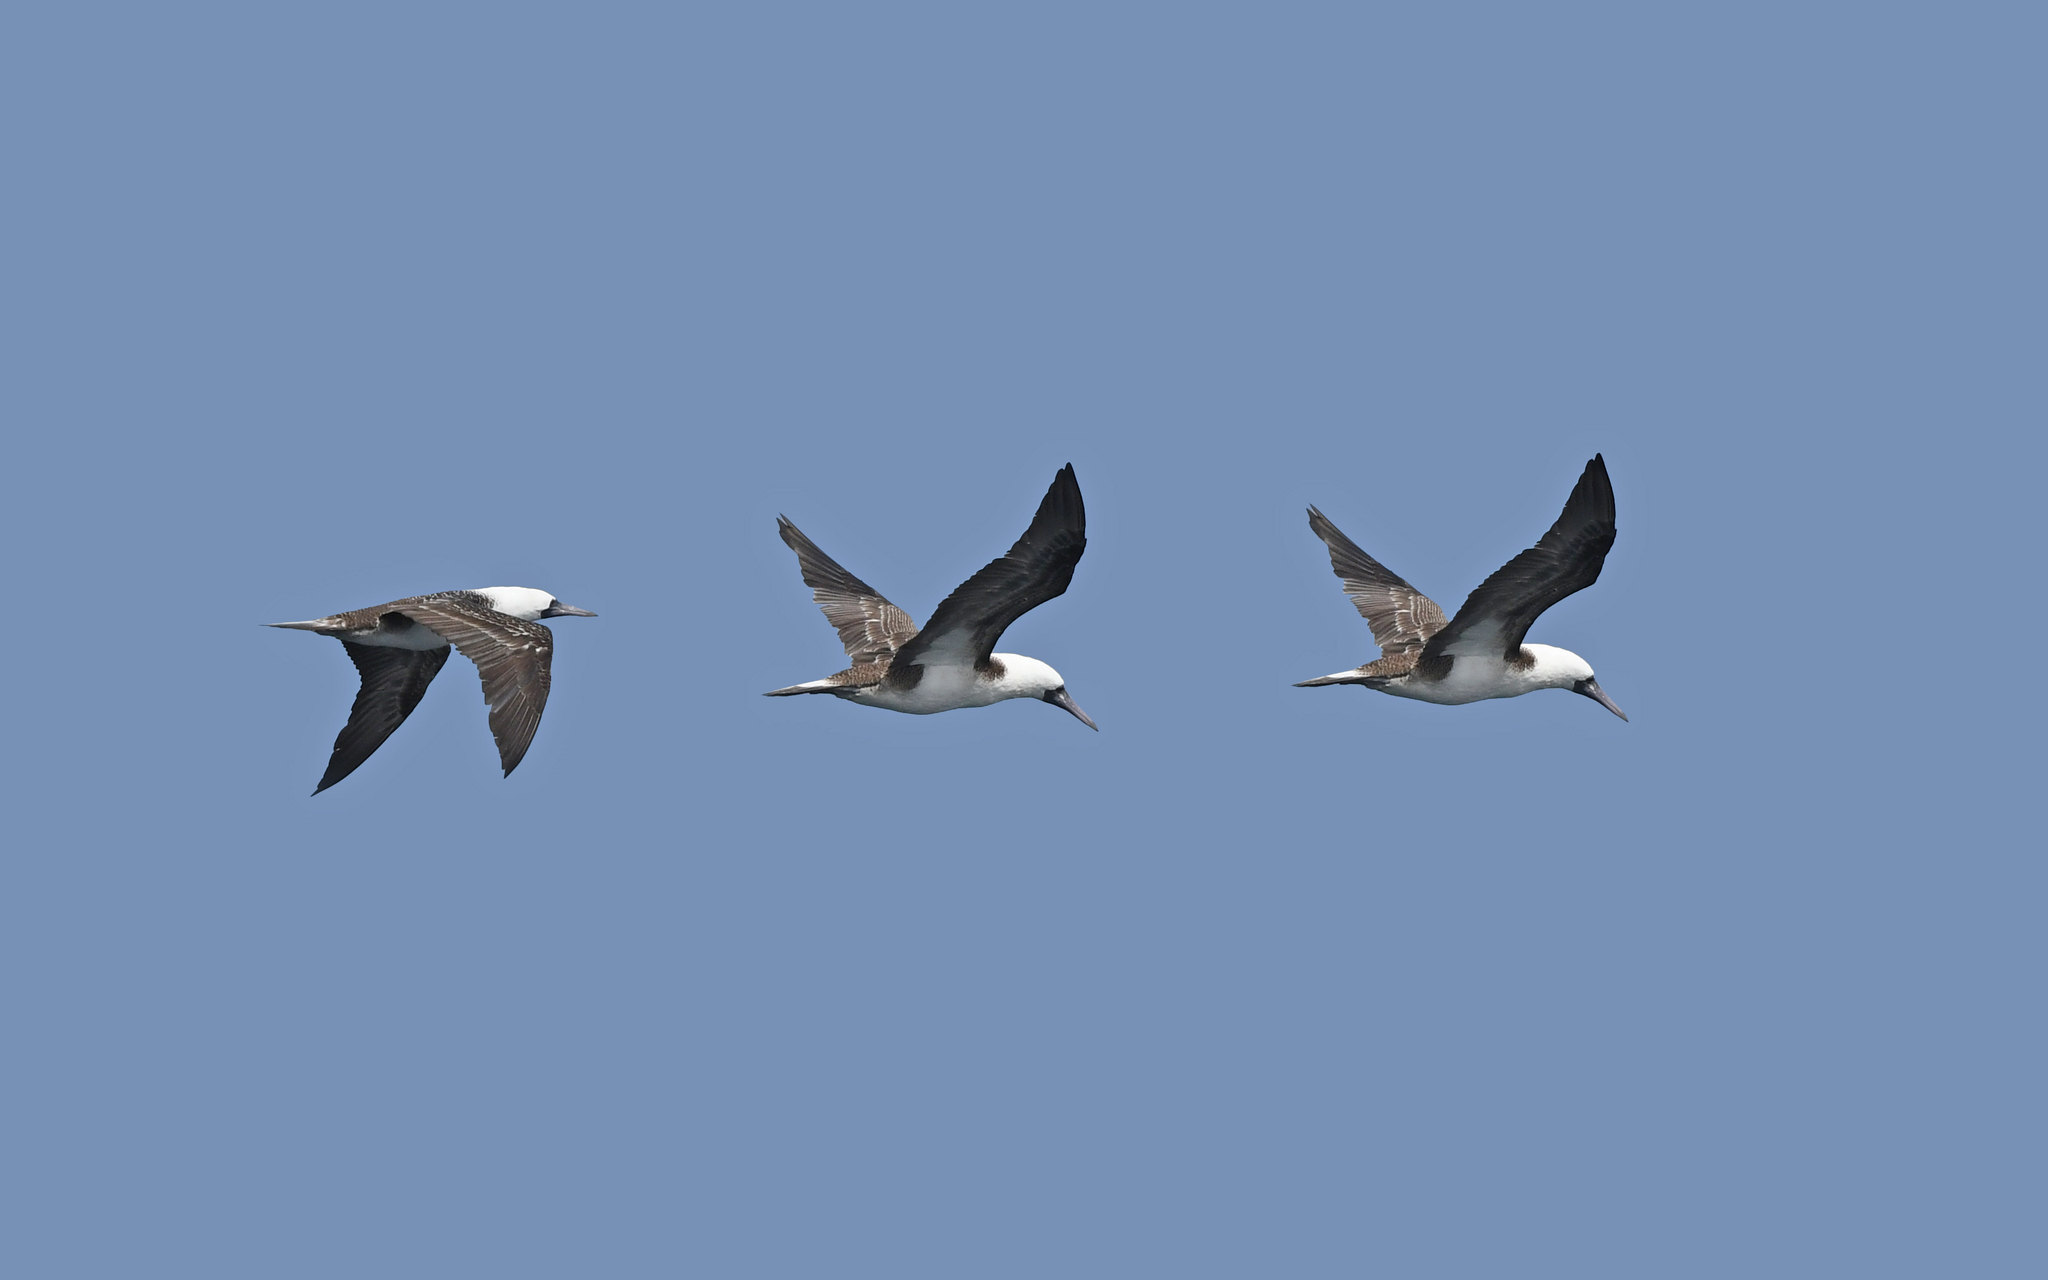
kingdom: Animalia
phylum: Chordata
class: Aves
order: Suliformes
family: Sulidae
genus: Sula
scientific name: Sula variegata
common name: Peruvian booby
